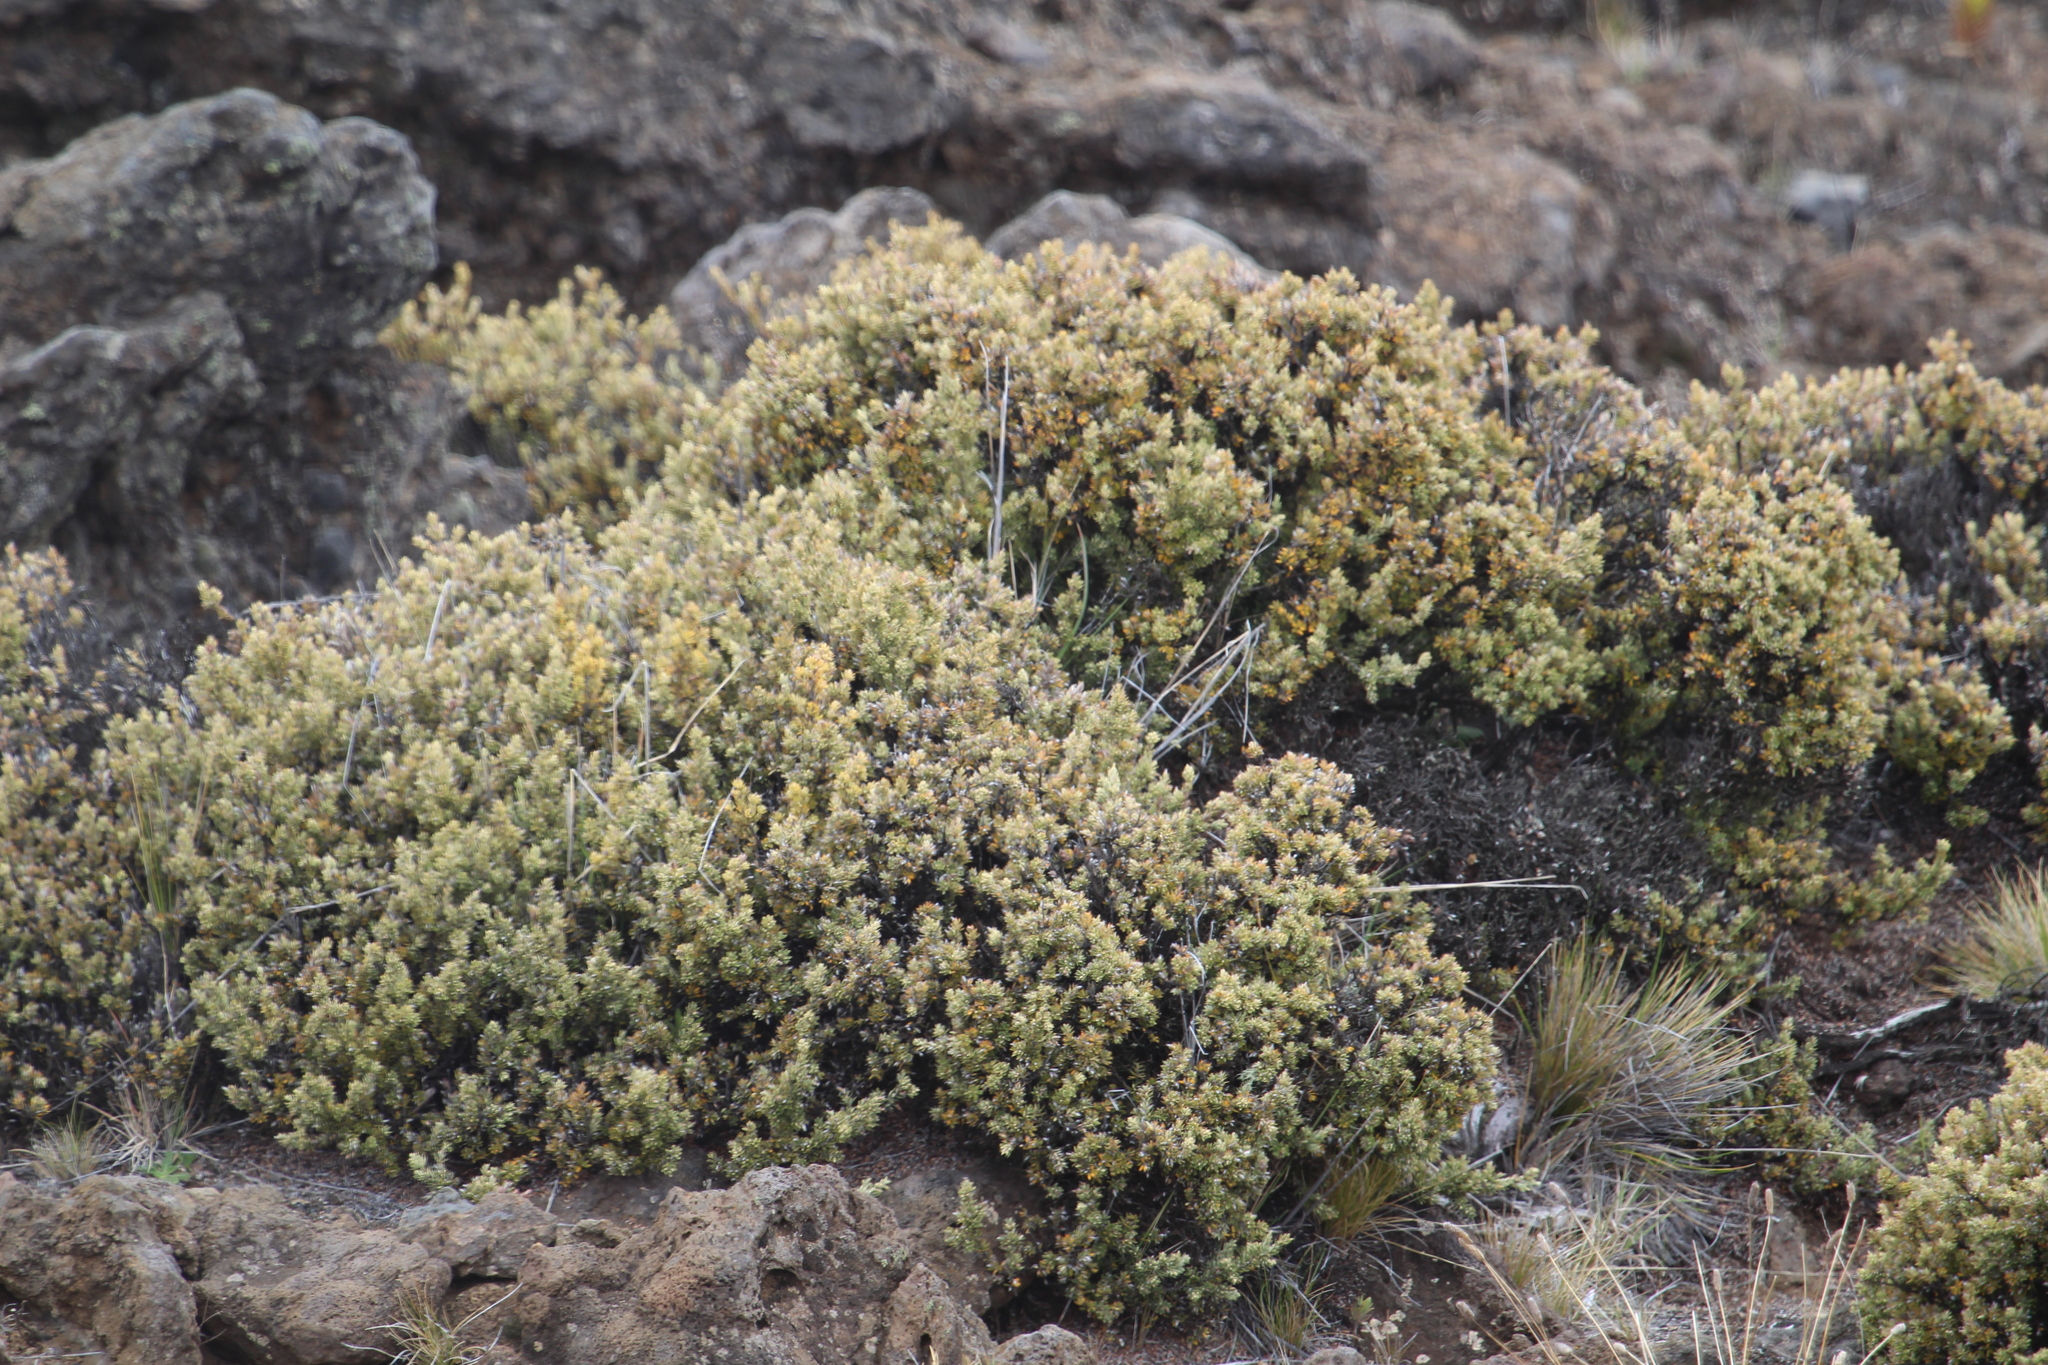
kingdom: Plantae
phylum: Tracheophyta
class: Magnoliopsida
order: Ericales
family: Ericaceae
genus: Leptecophylla
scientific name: Leptecophylla tameiameiae
